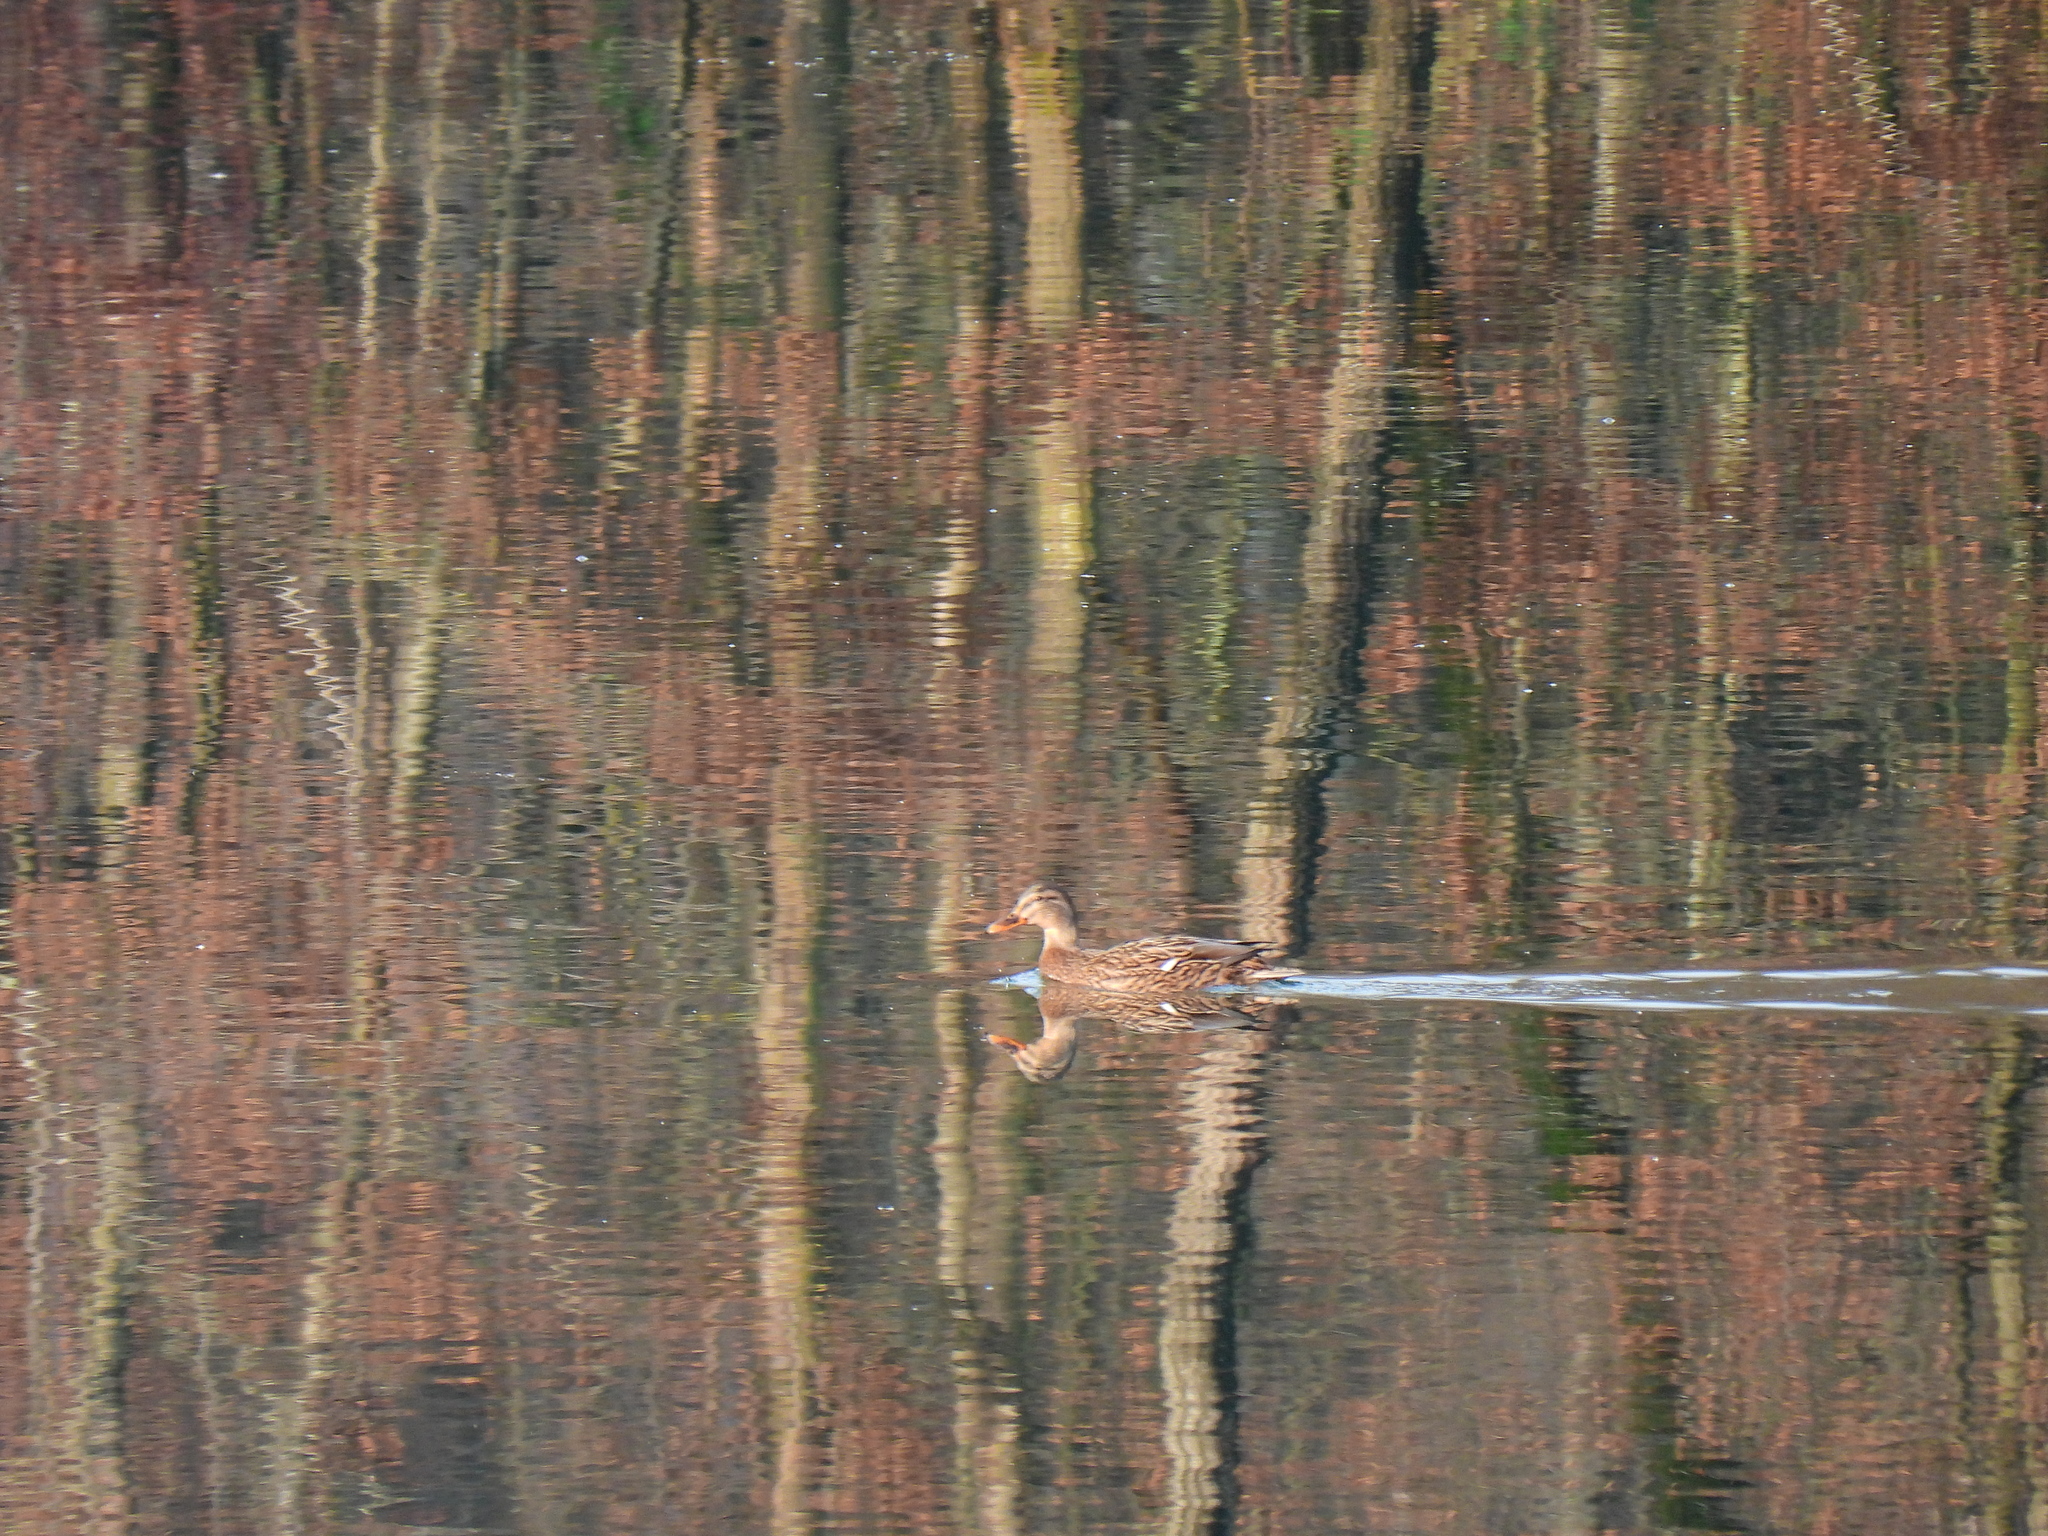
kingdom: Animalia
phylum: Chordata
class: Aves
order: Anseriformes
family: Anatidae
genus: Anas
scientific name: Anas platyrhynchos
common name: Mallard
